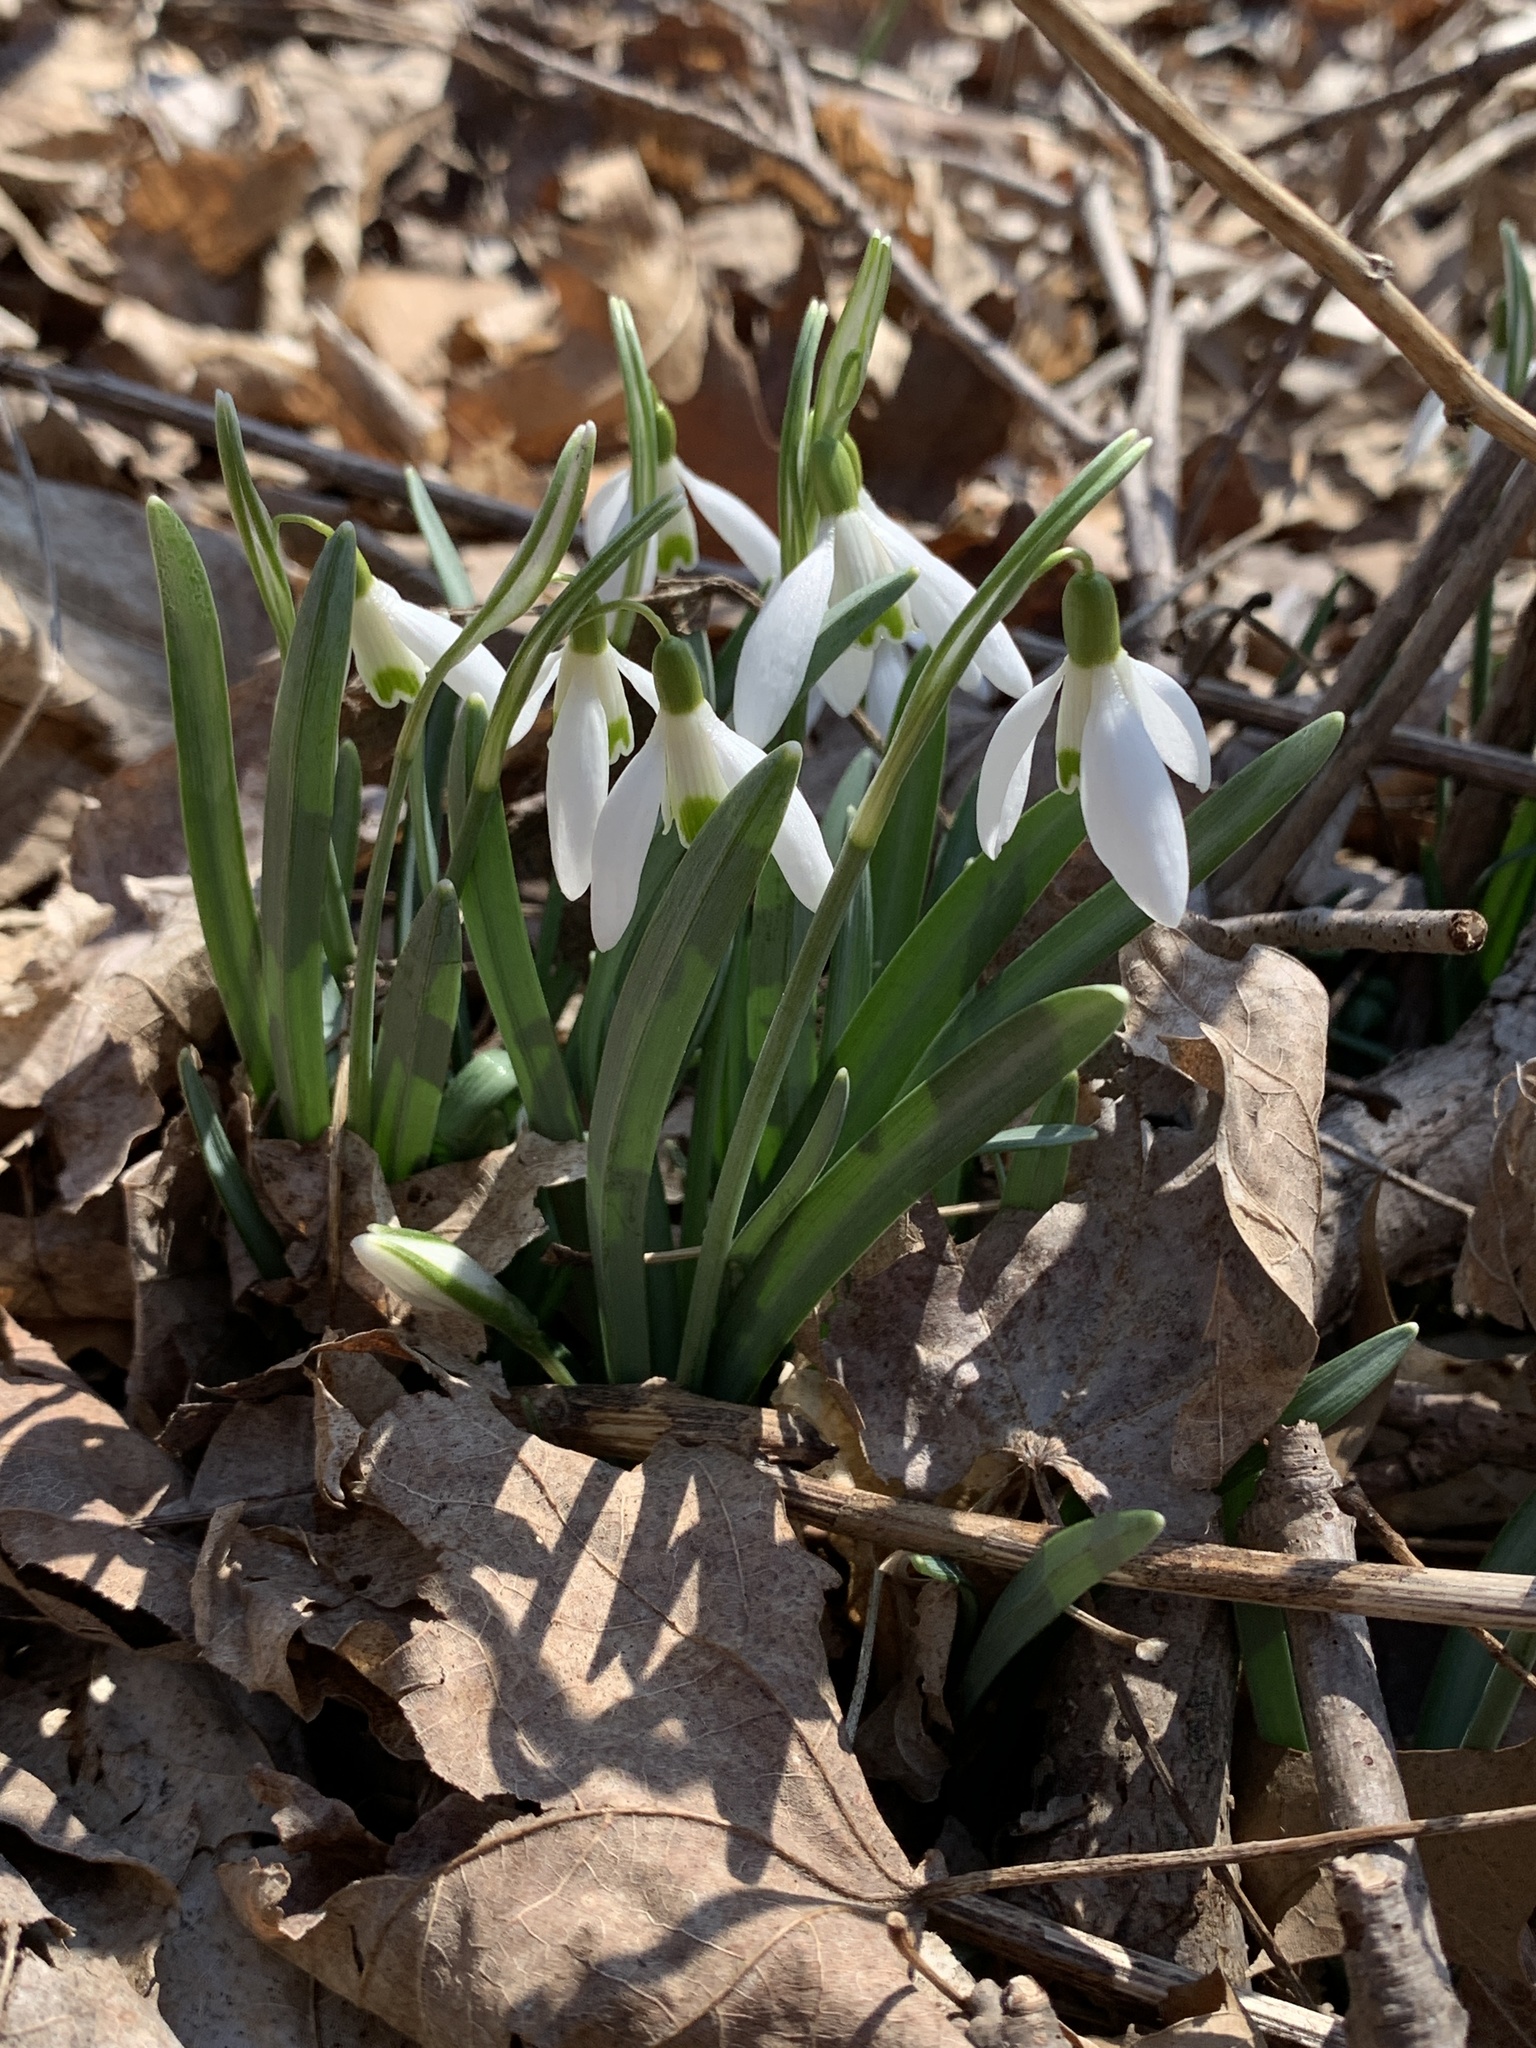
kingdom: Plantae
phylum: Tracheophyta
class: Liliopsida
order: Asparagales
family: Amaryllidaceae
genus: Galanthus
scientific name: Galanthus nivalis
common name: Snowdrop
